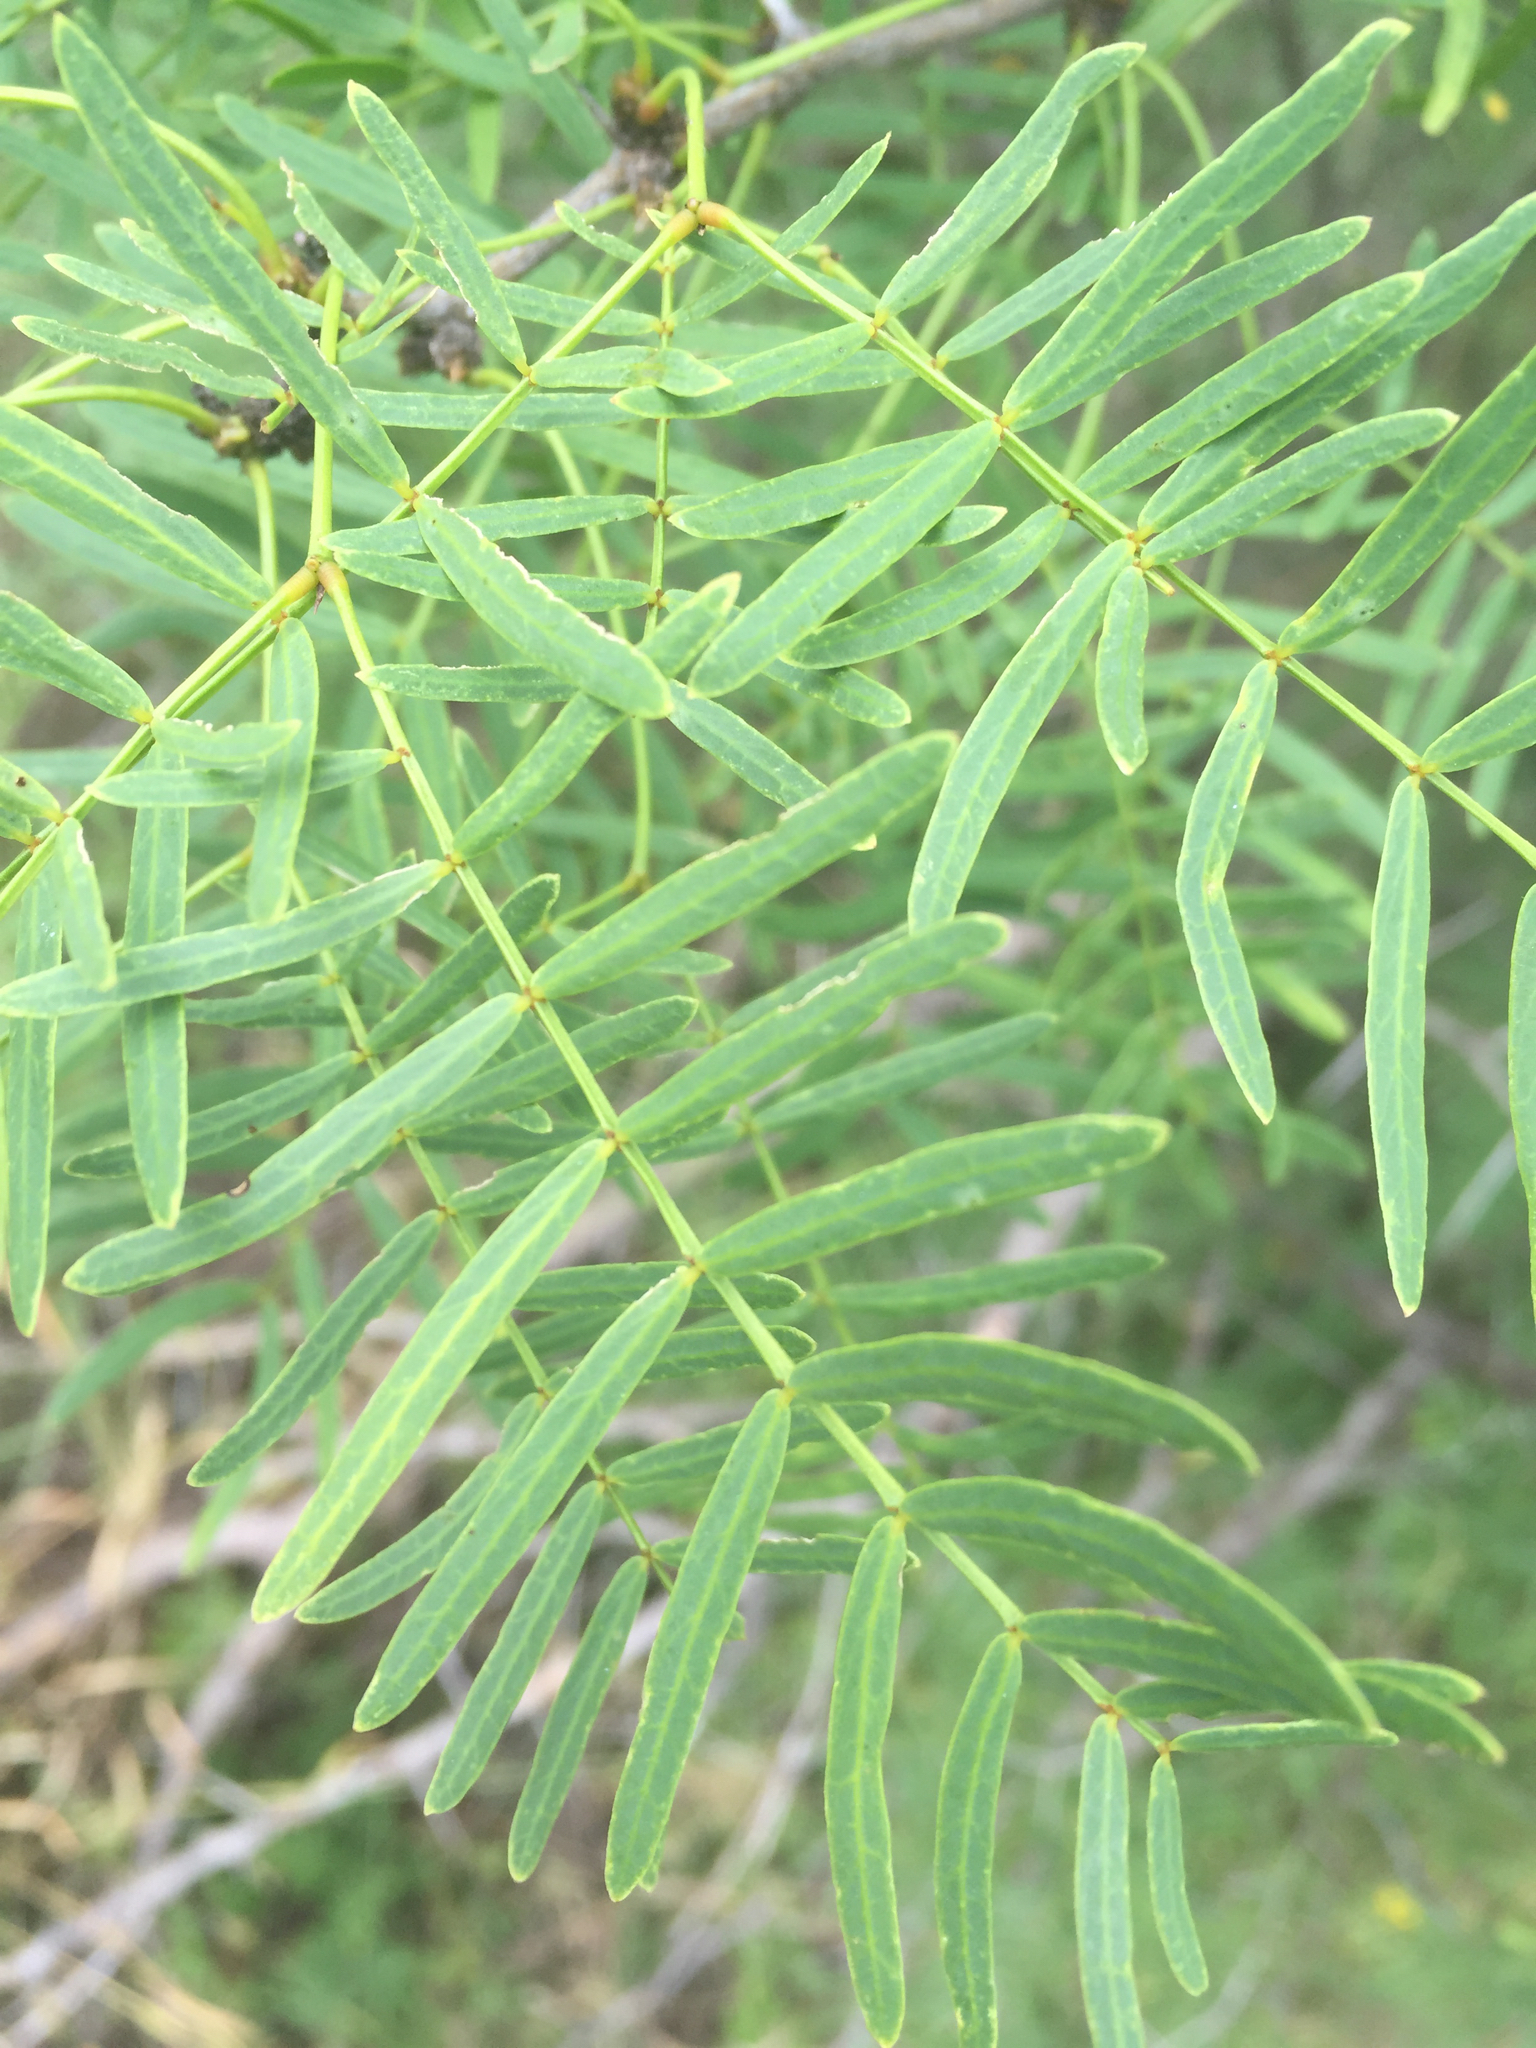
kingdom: Plantae
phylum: Tracheophyta
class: Magnoliopsida
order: Fabales
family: Fabaceae
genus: Prosopis
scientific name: Prosopis glandulosa
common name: Honey mesquite
